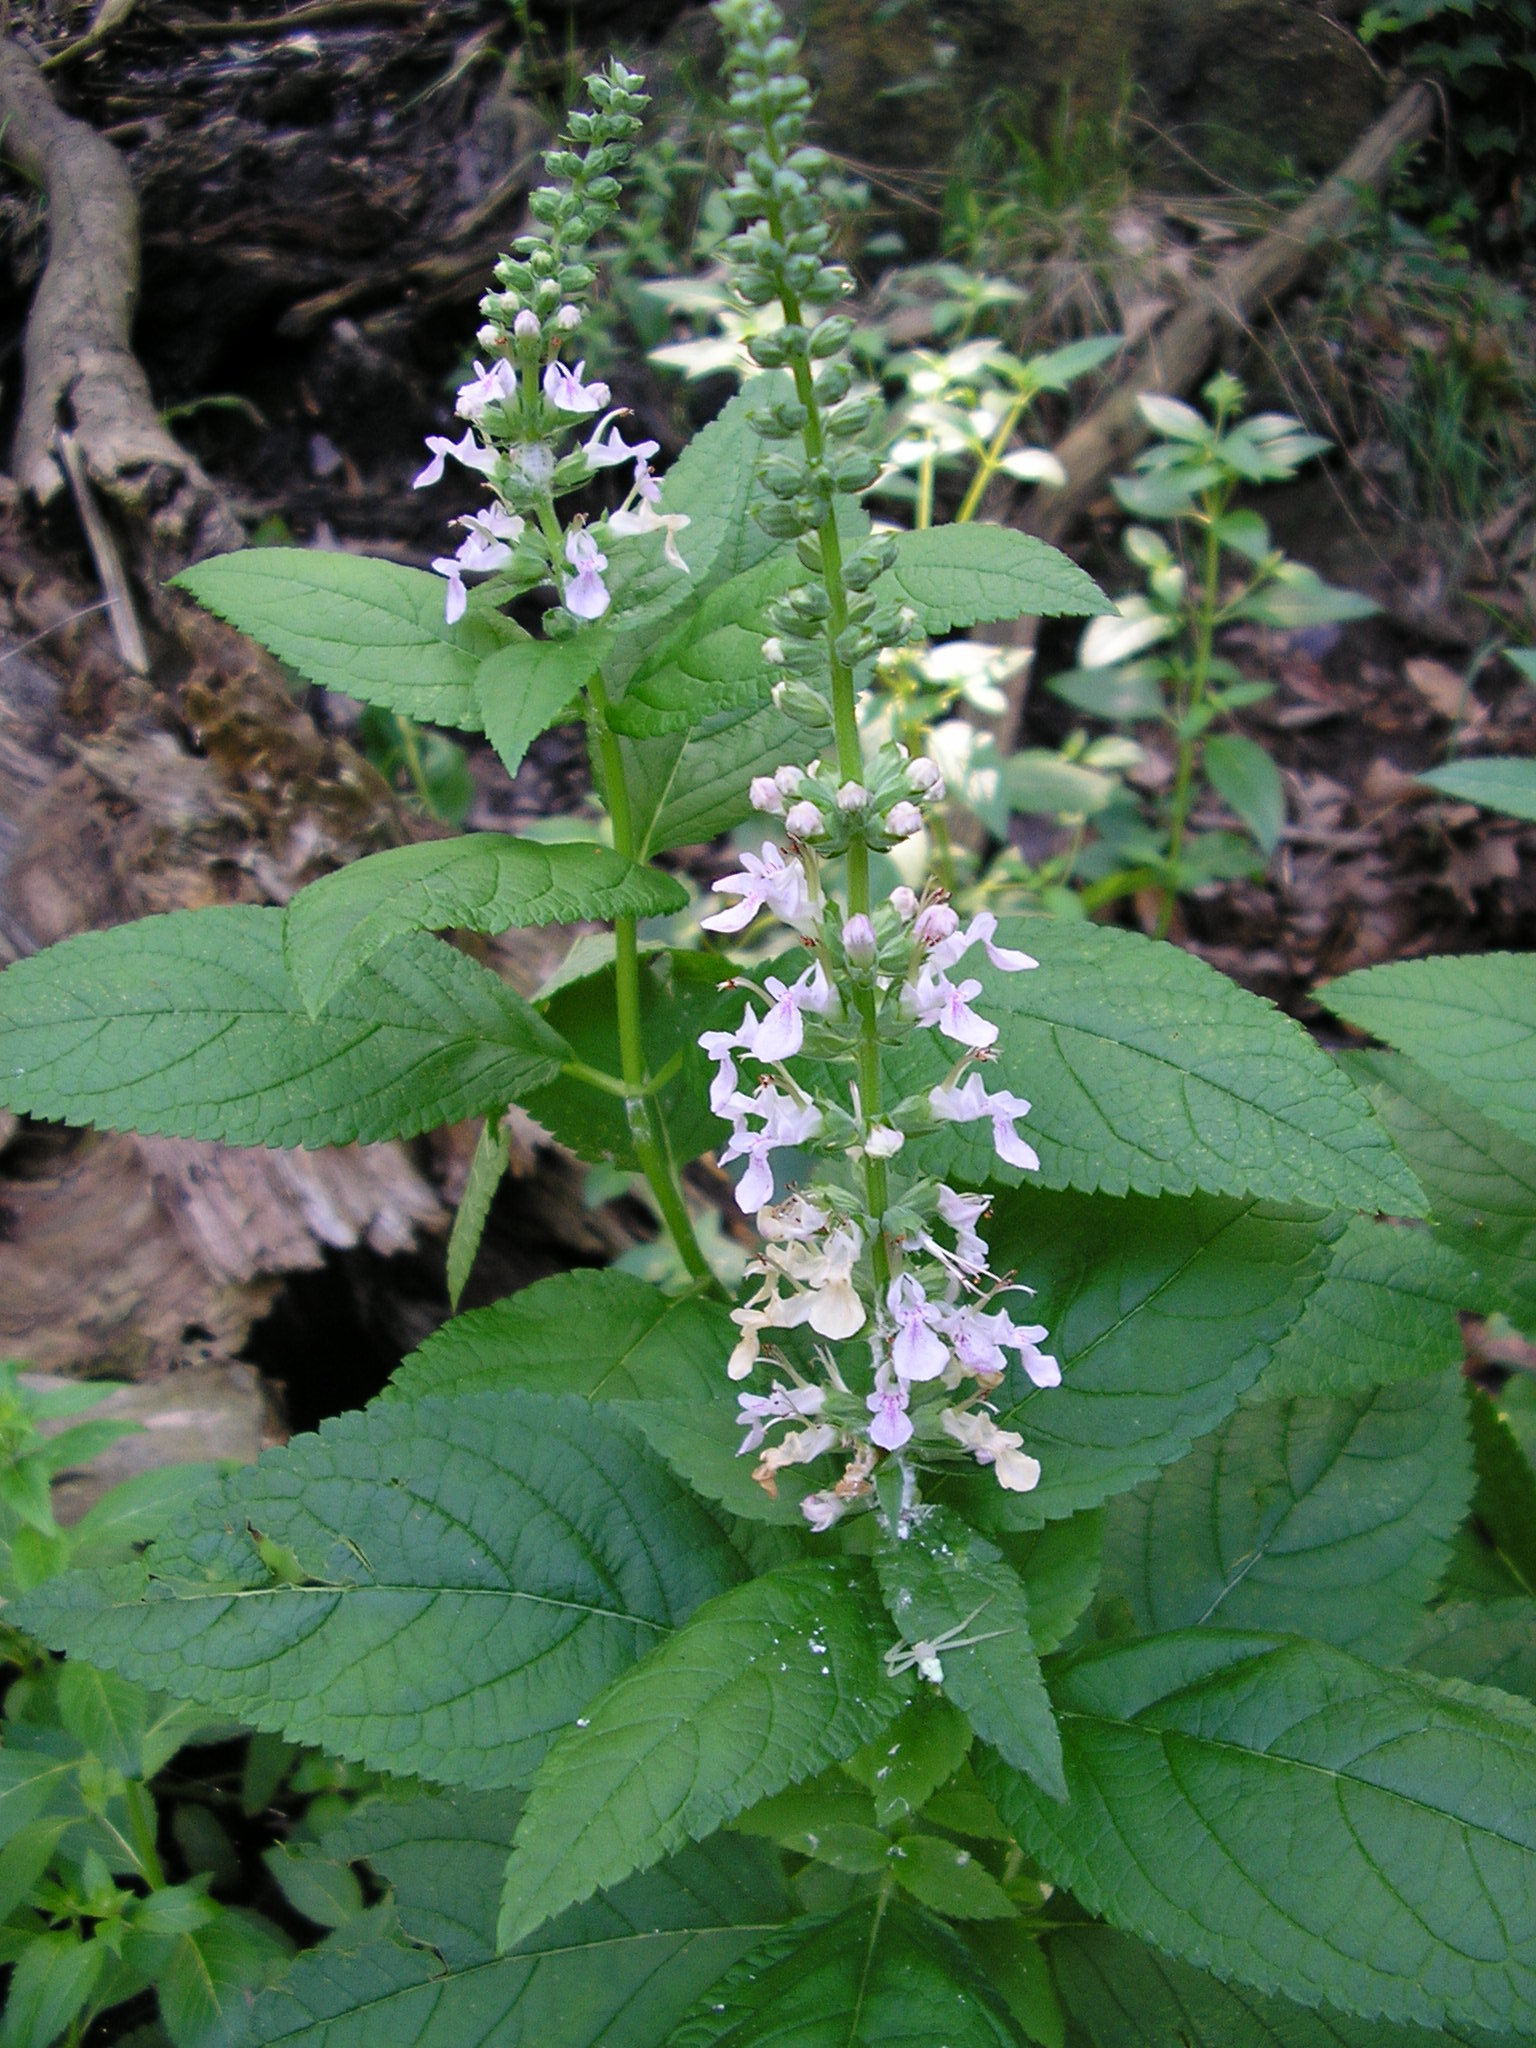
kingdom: Plantae
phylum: Tracheophyta
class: Magnoliopsida
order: Lamiales
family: Lamiaceae
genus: Teucrium
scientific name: Teucrium canadense
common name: American germander
